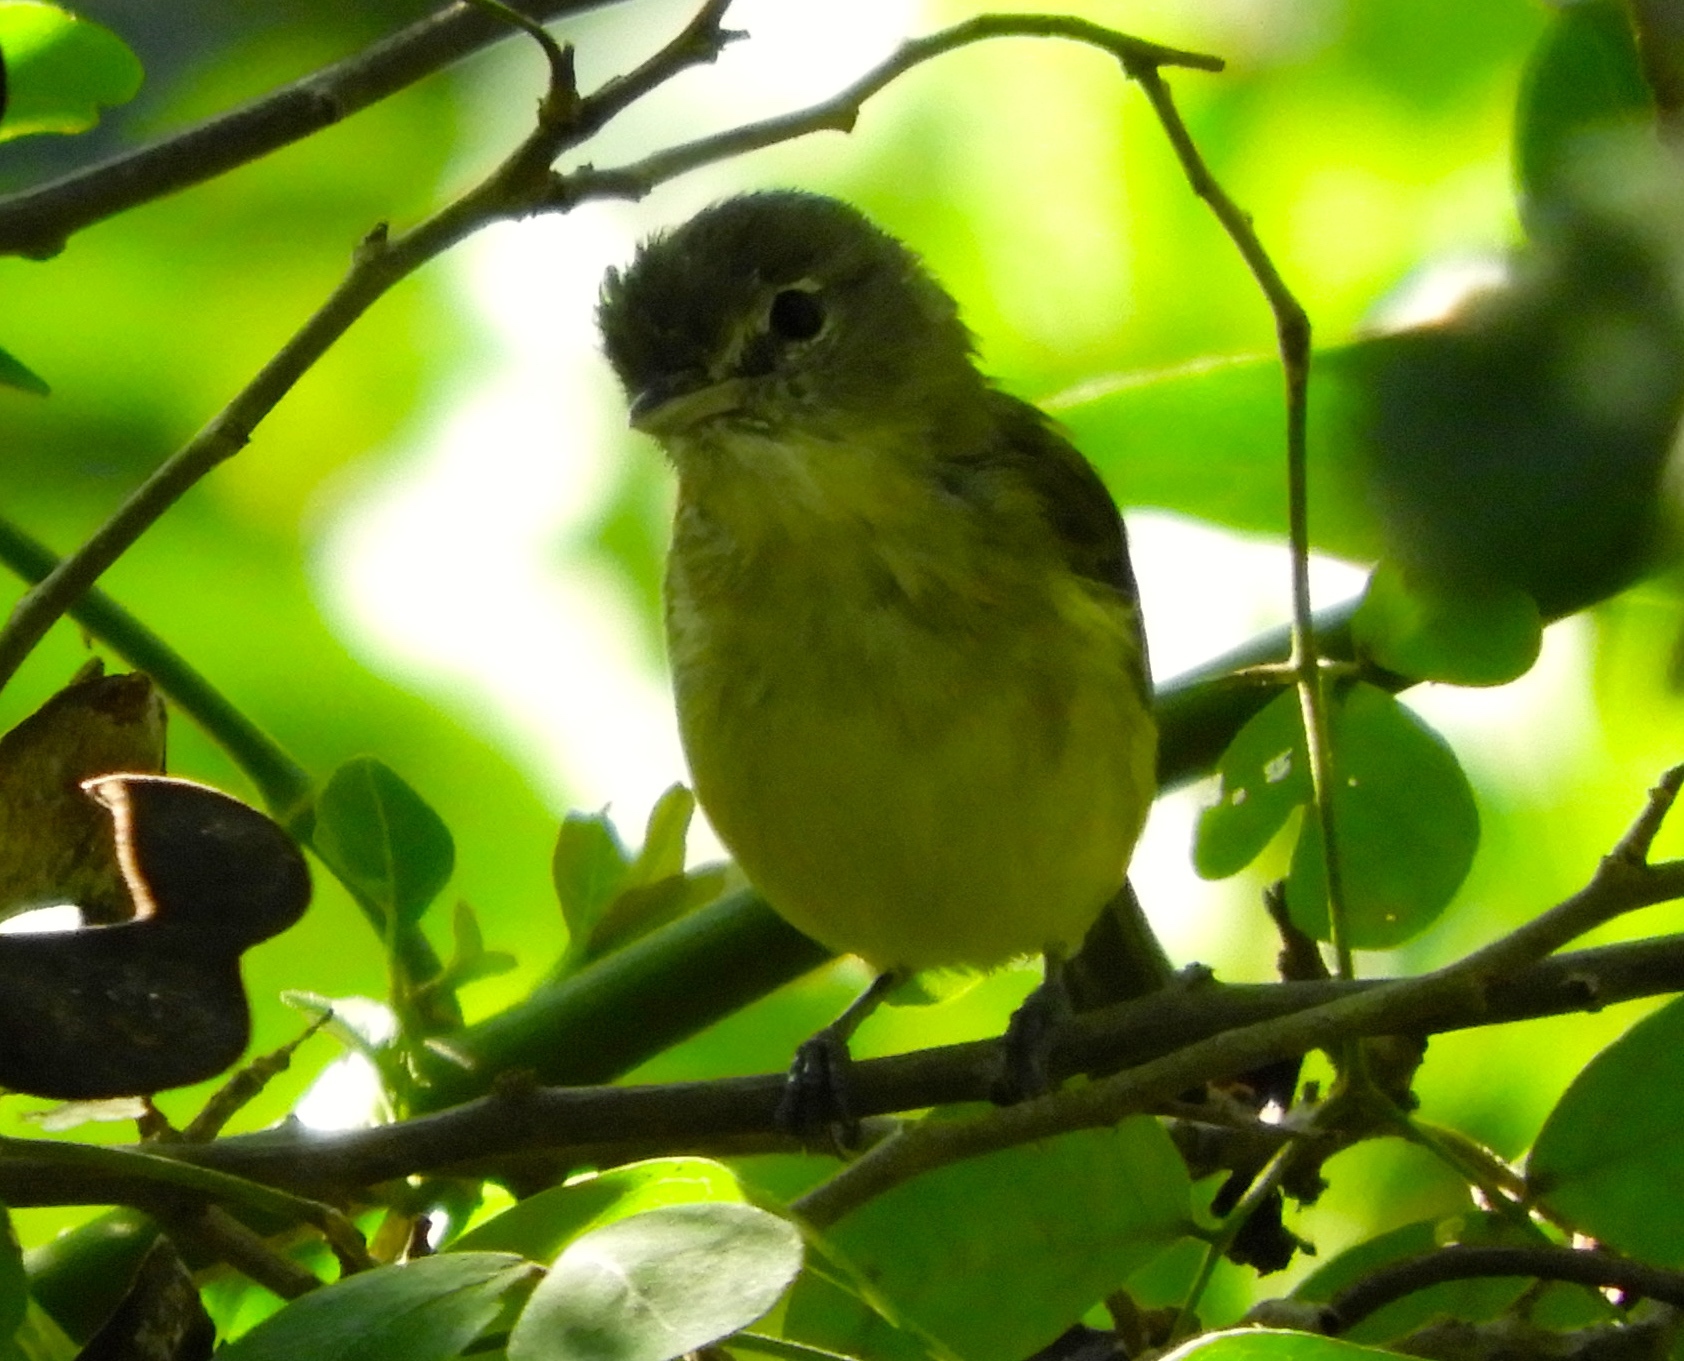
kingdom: Animalia
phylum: Chordata
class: Aves
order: Passeriformes
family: Vireonidae
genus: Vireo
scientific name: Vireo bellii
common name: Bell's vireo
